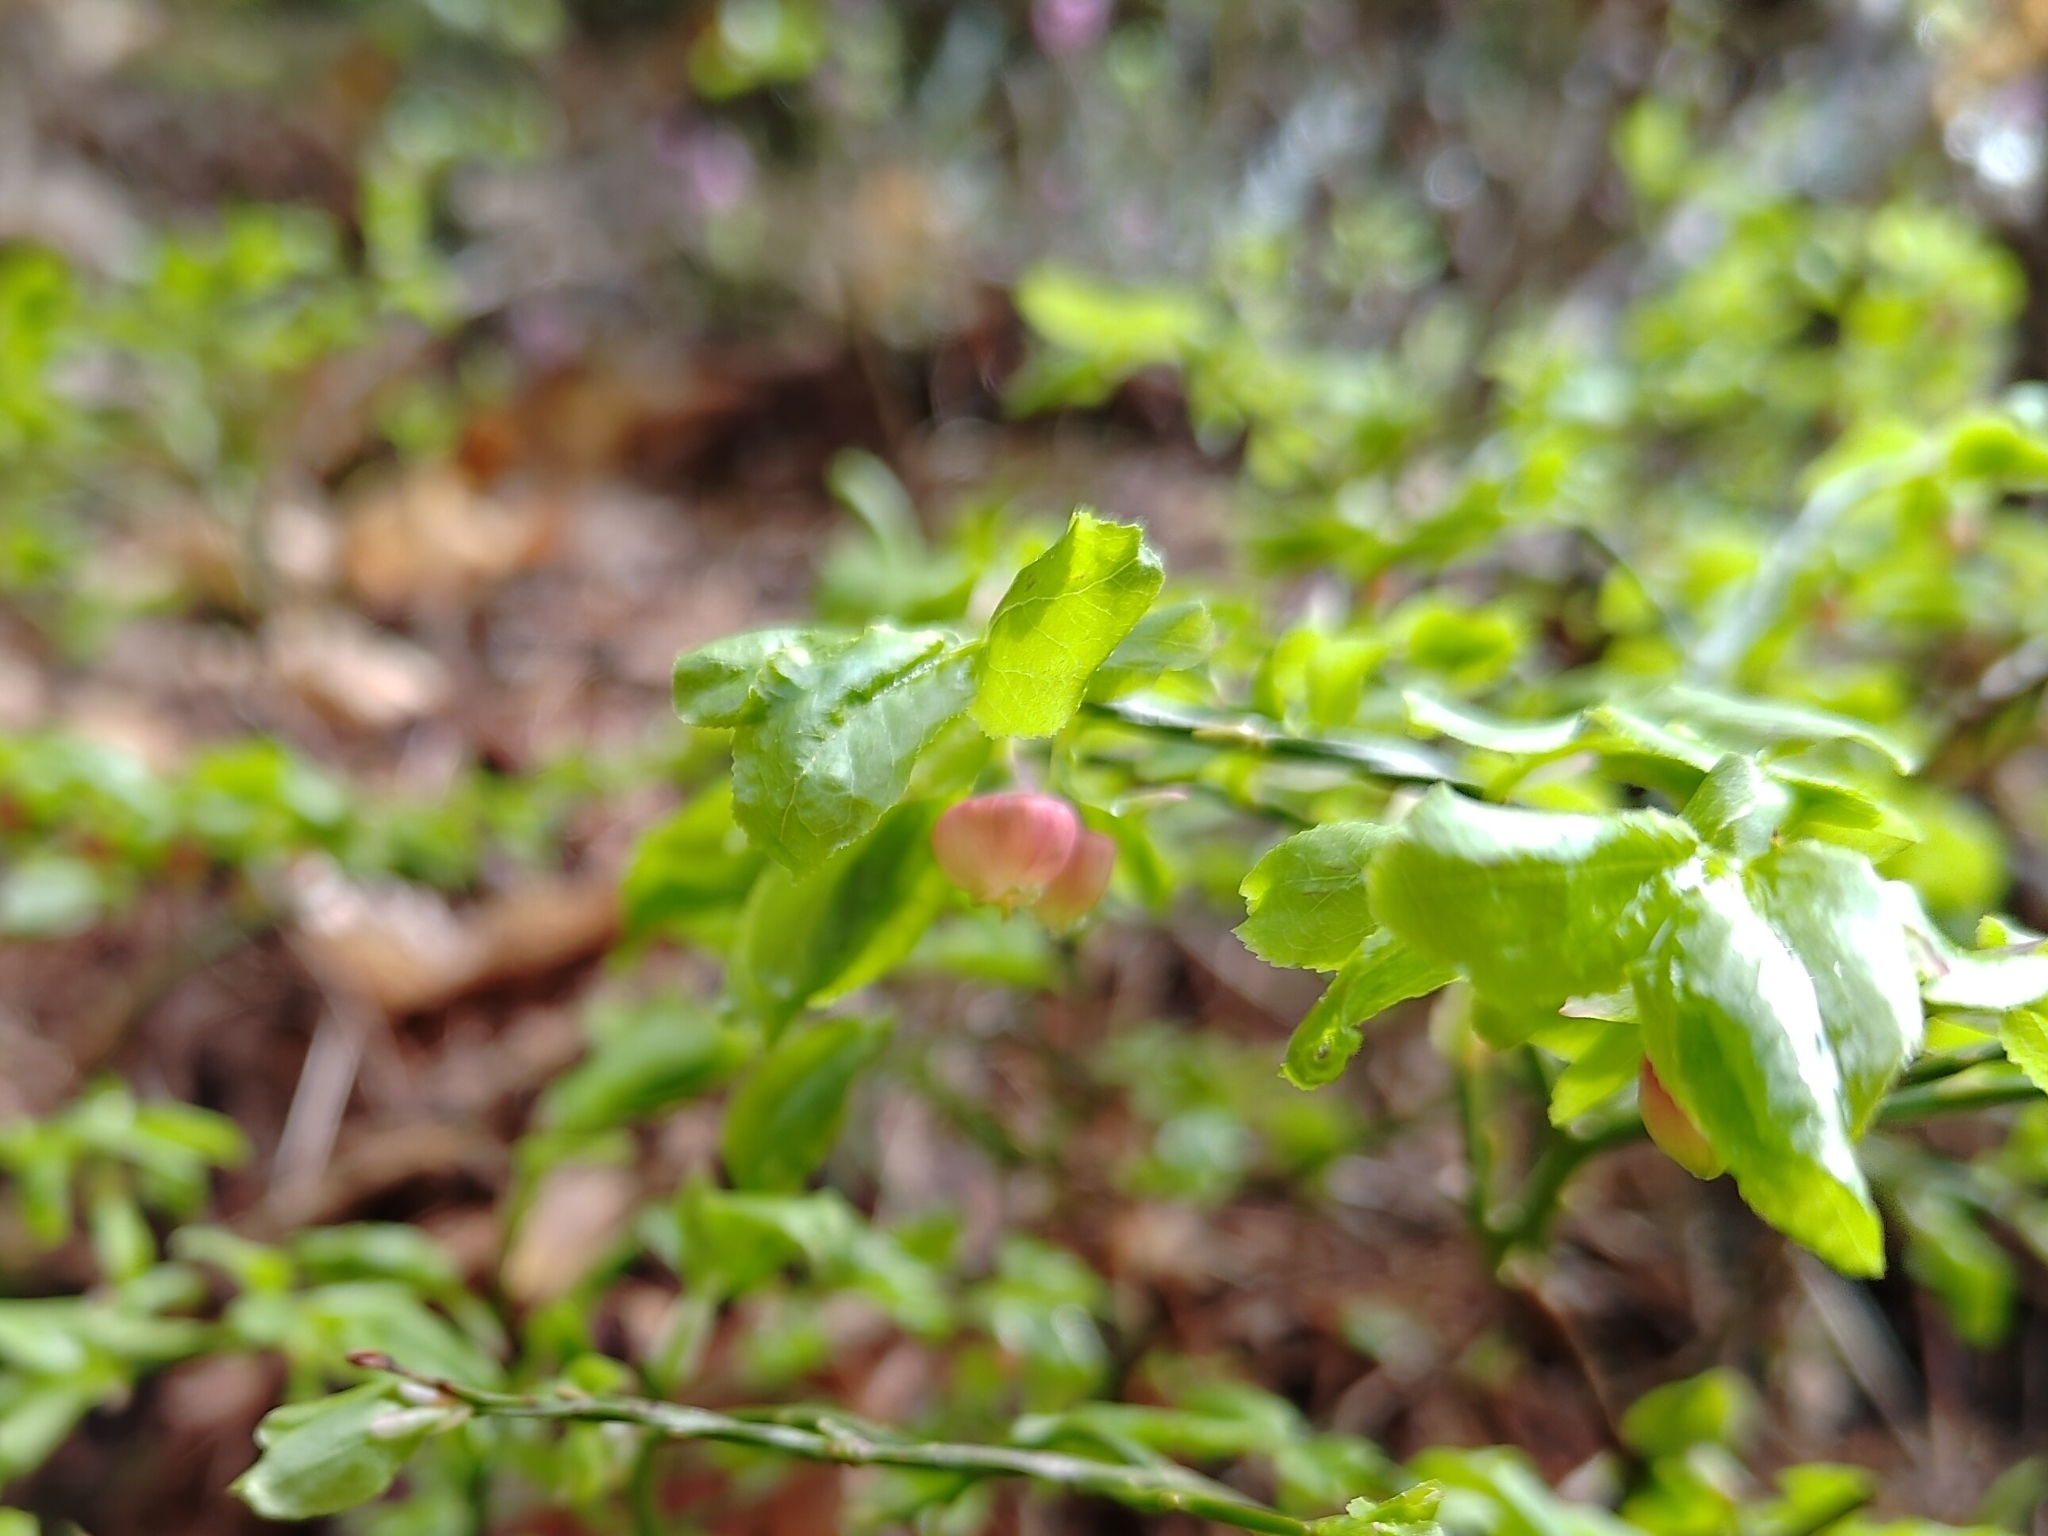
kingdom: Plantae
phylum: Tracheophyta
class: Magnoliopsida
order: Ericales
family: Ericaceae
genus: Vaccinium
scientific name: Vaccinium myrtillus
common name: Bilberry
